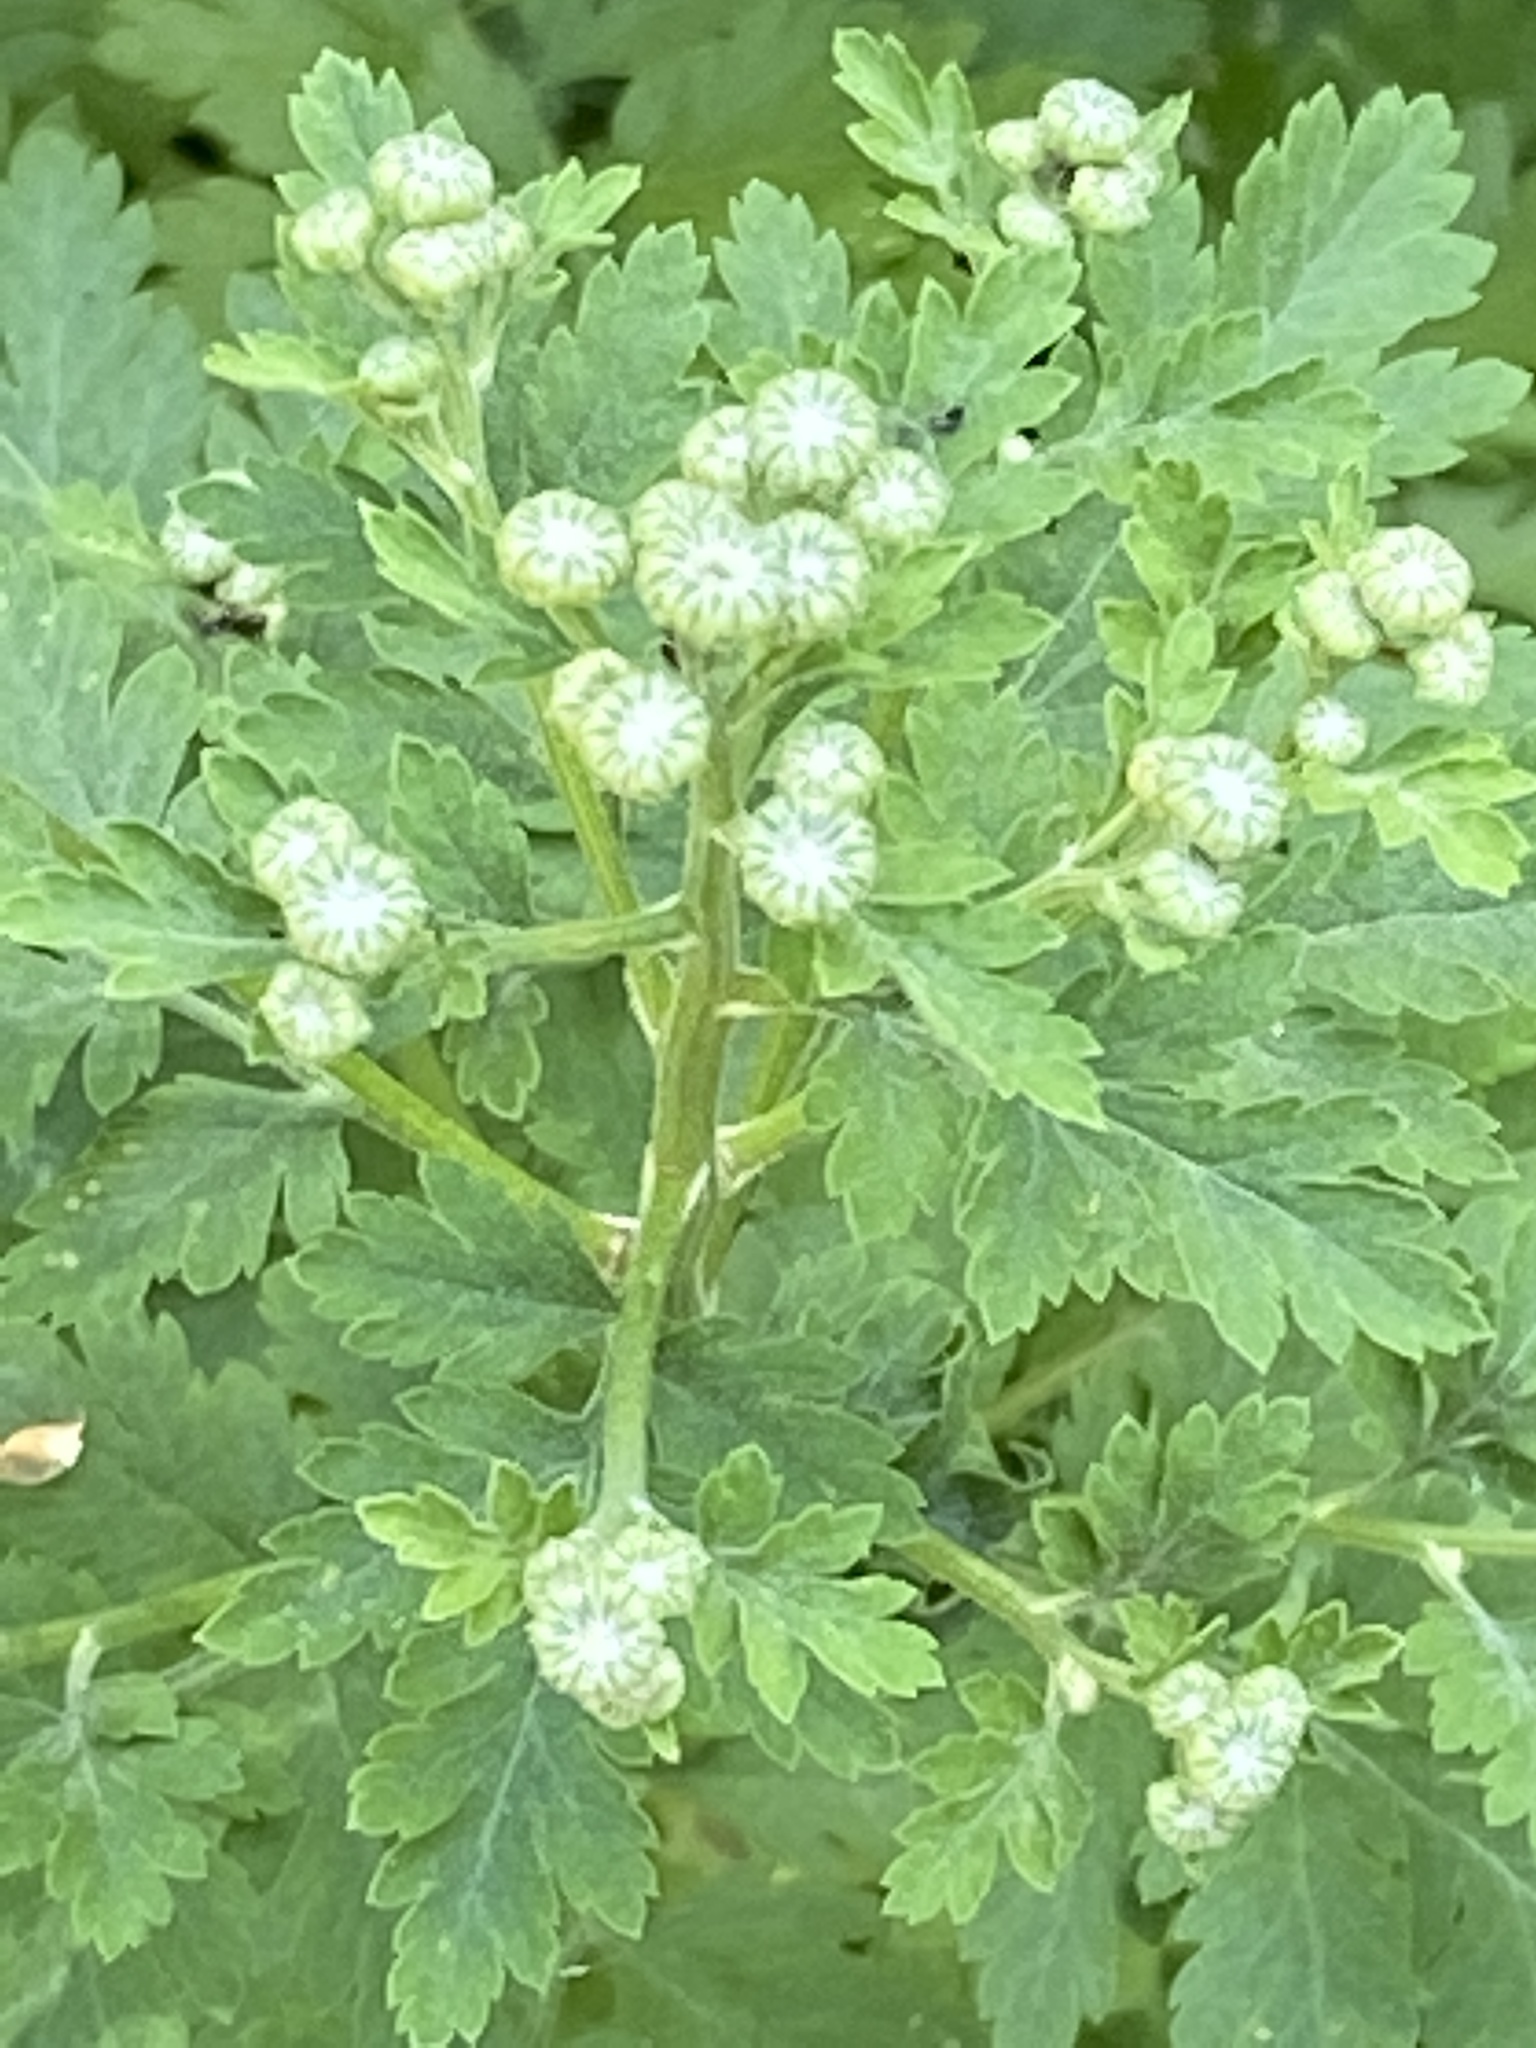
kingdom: Plantae
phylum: Tracheophyta
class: Magnoliopsida
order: Asterales
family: Asteraceae
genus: Tanacetum
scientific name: Tanacetum parthenium
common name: Feverfew
